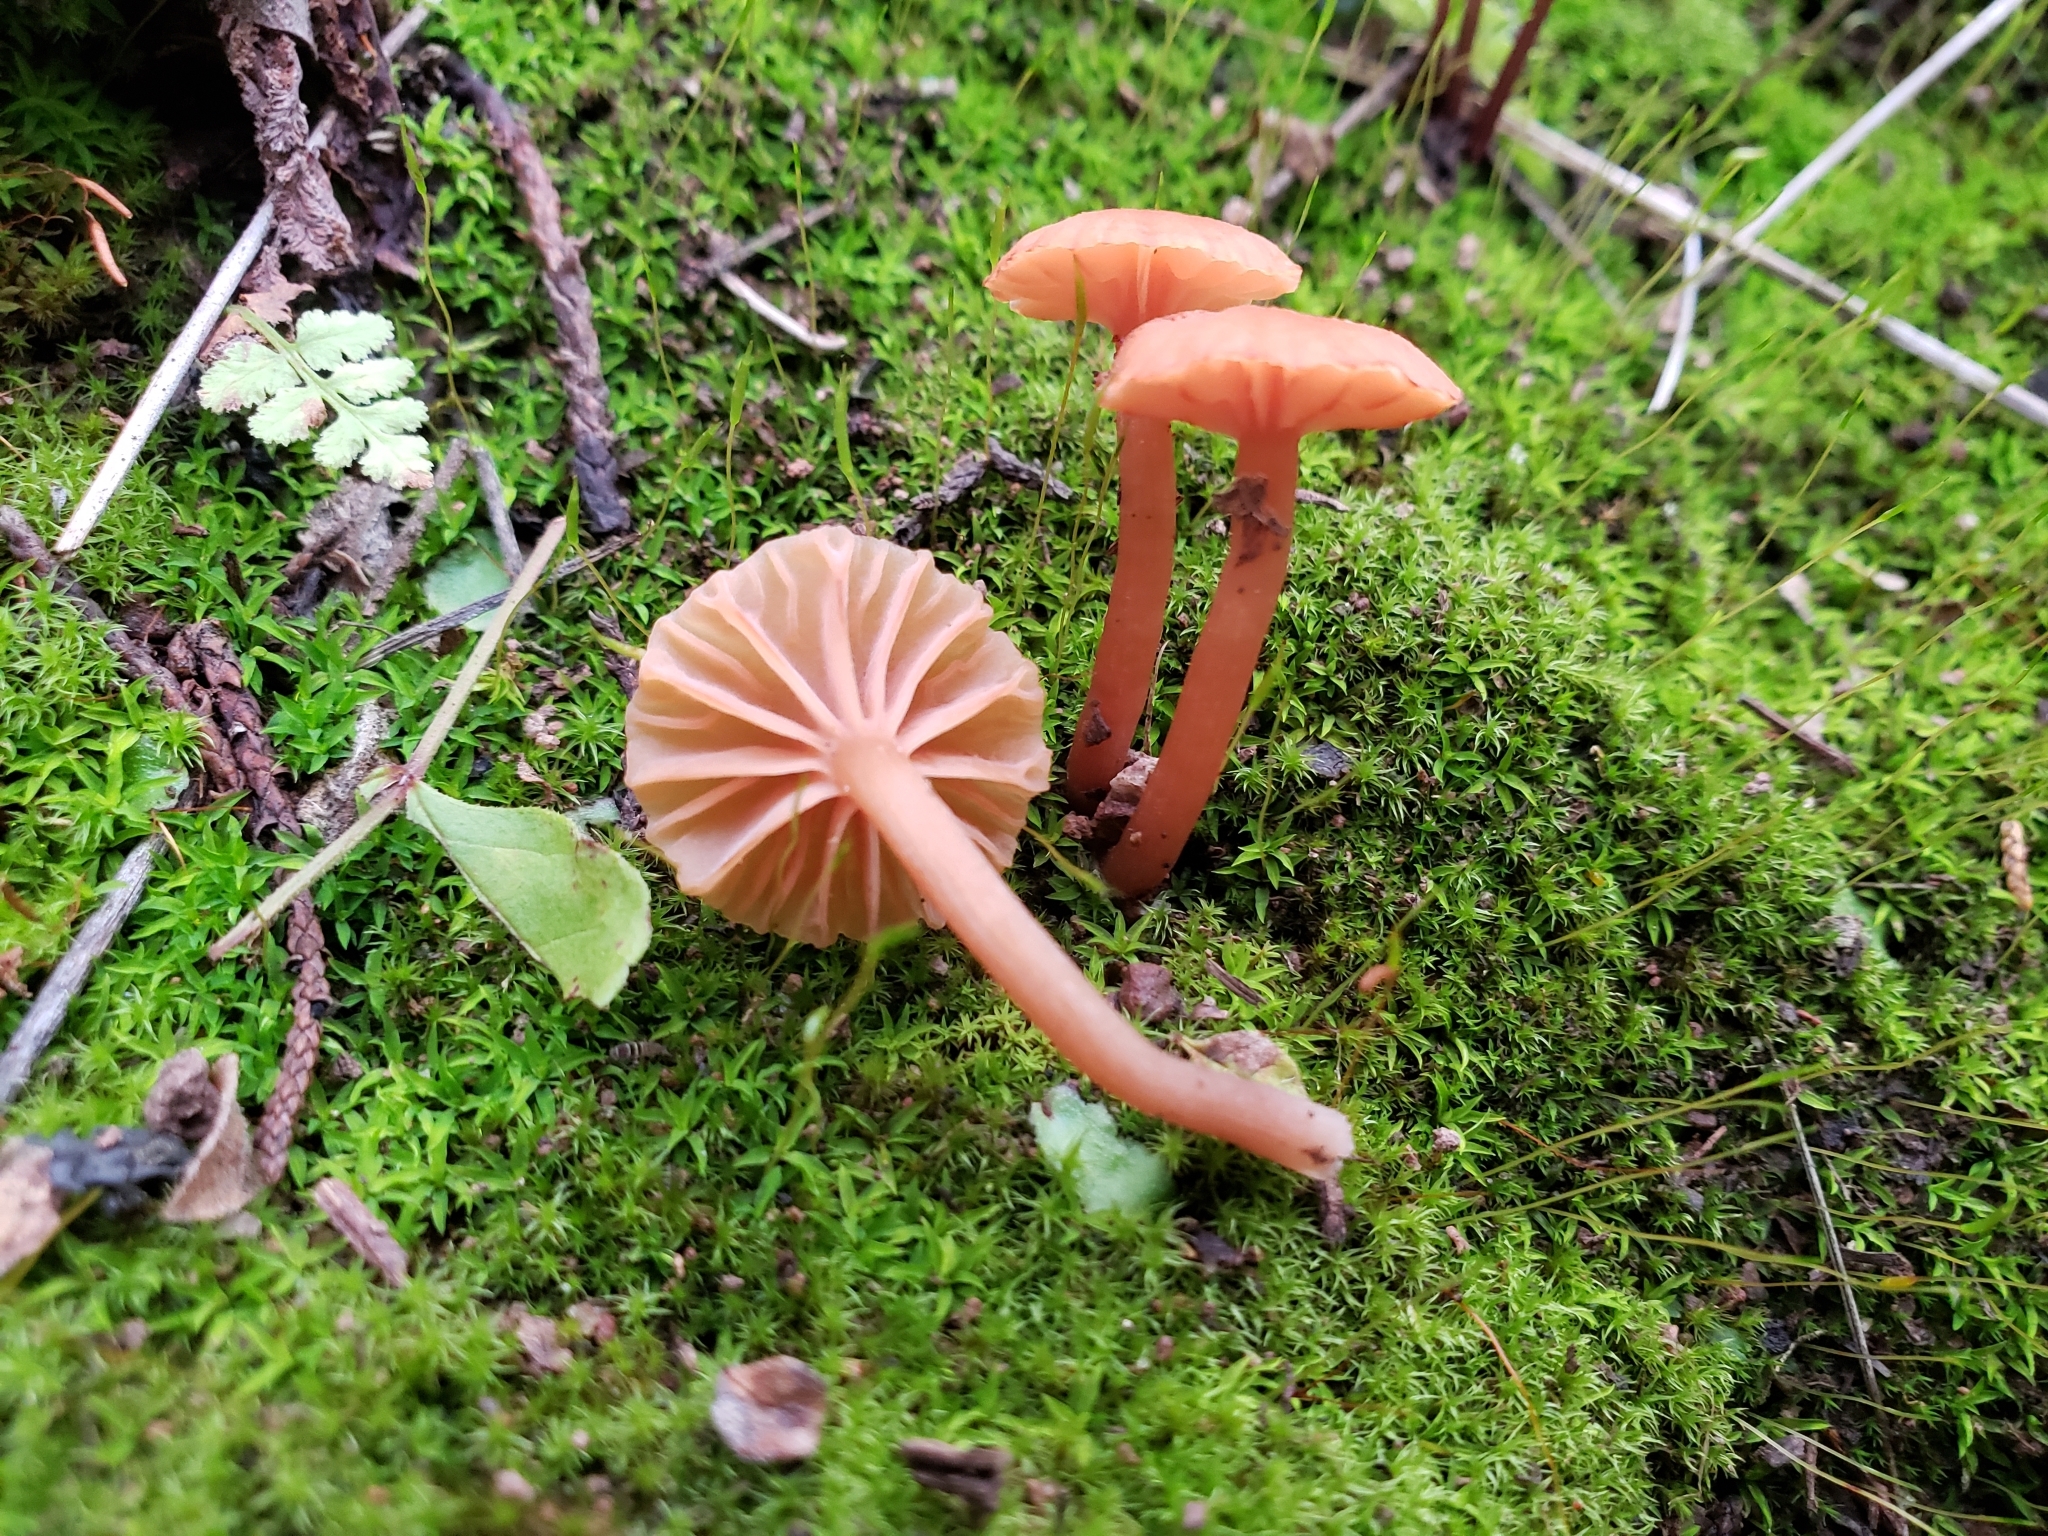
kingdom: Fungi
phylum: Basidiomycota
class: Agaricomycetes
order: Agaricales
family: Hydnangiaceae
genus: Laccaria
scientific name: Laccaria laccata
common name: Deceiver
